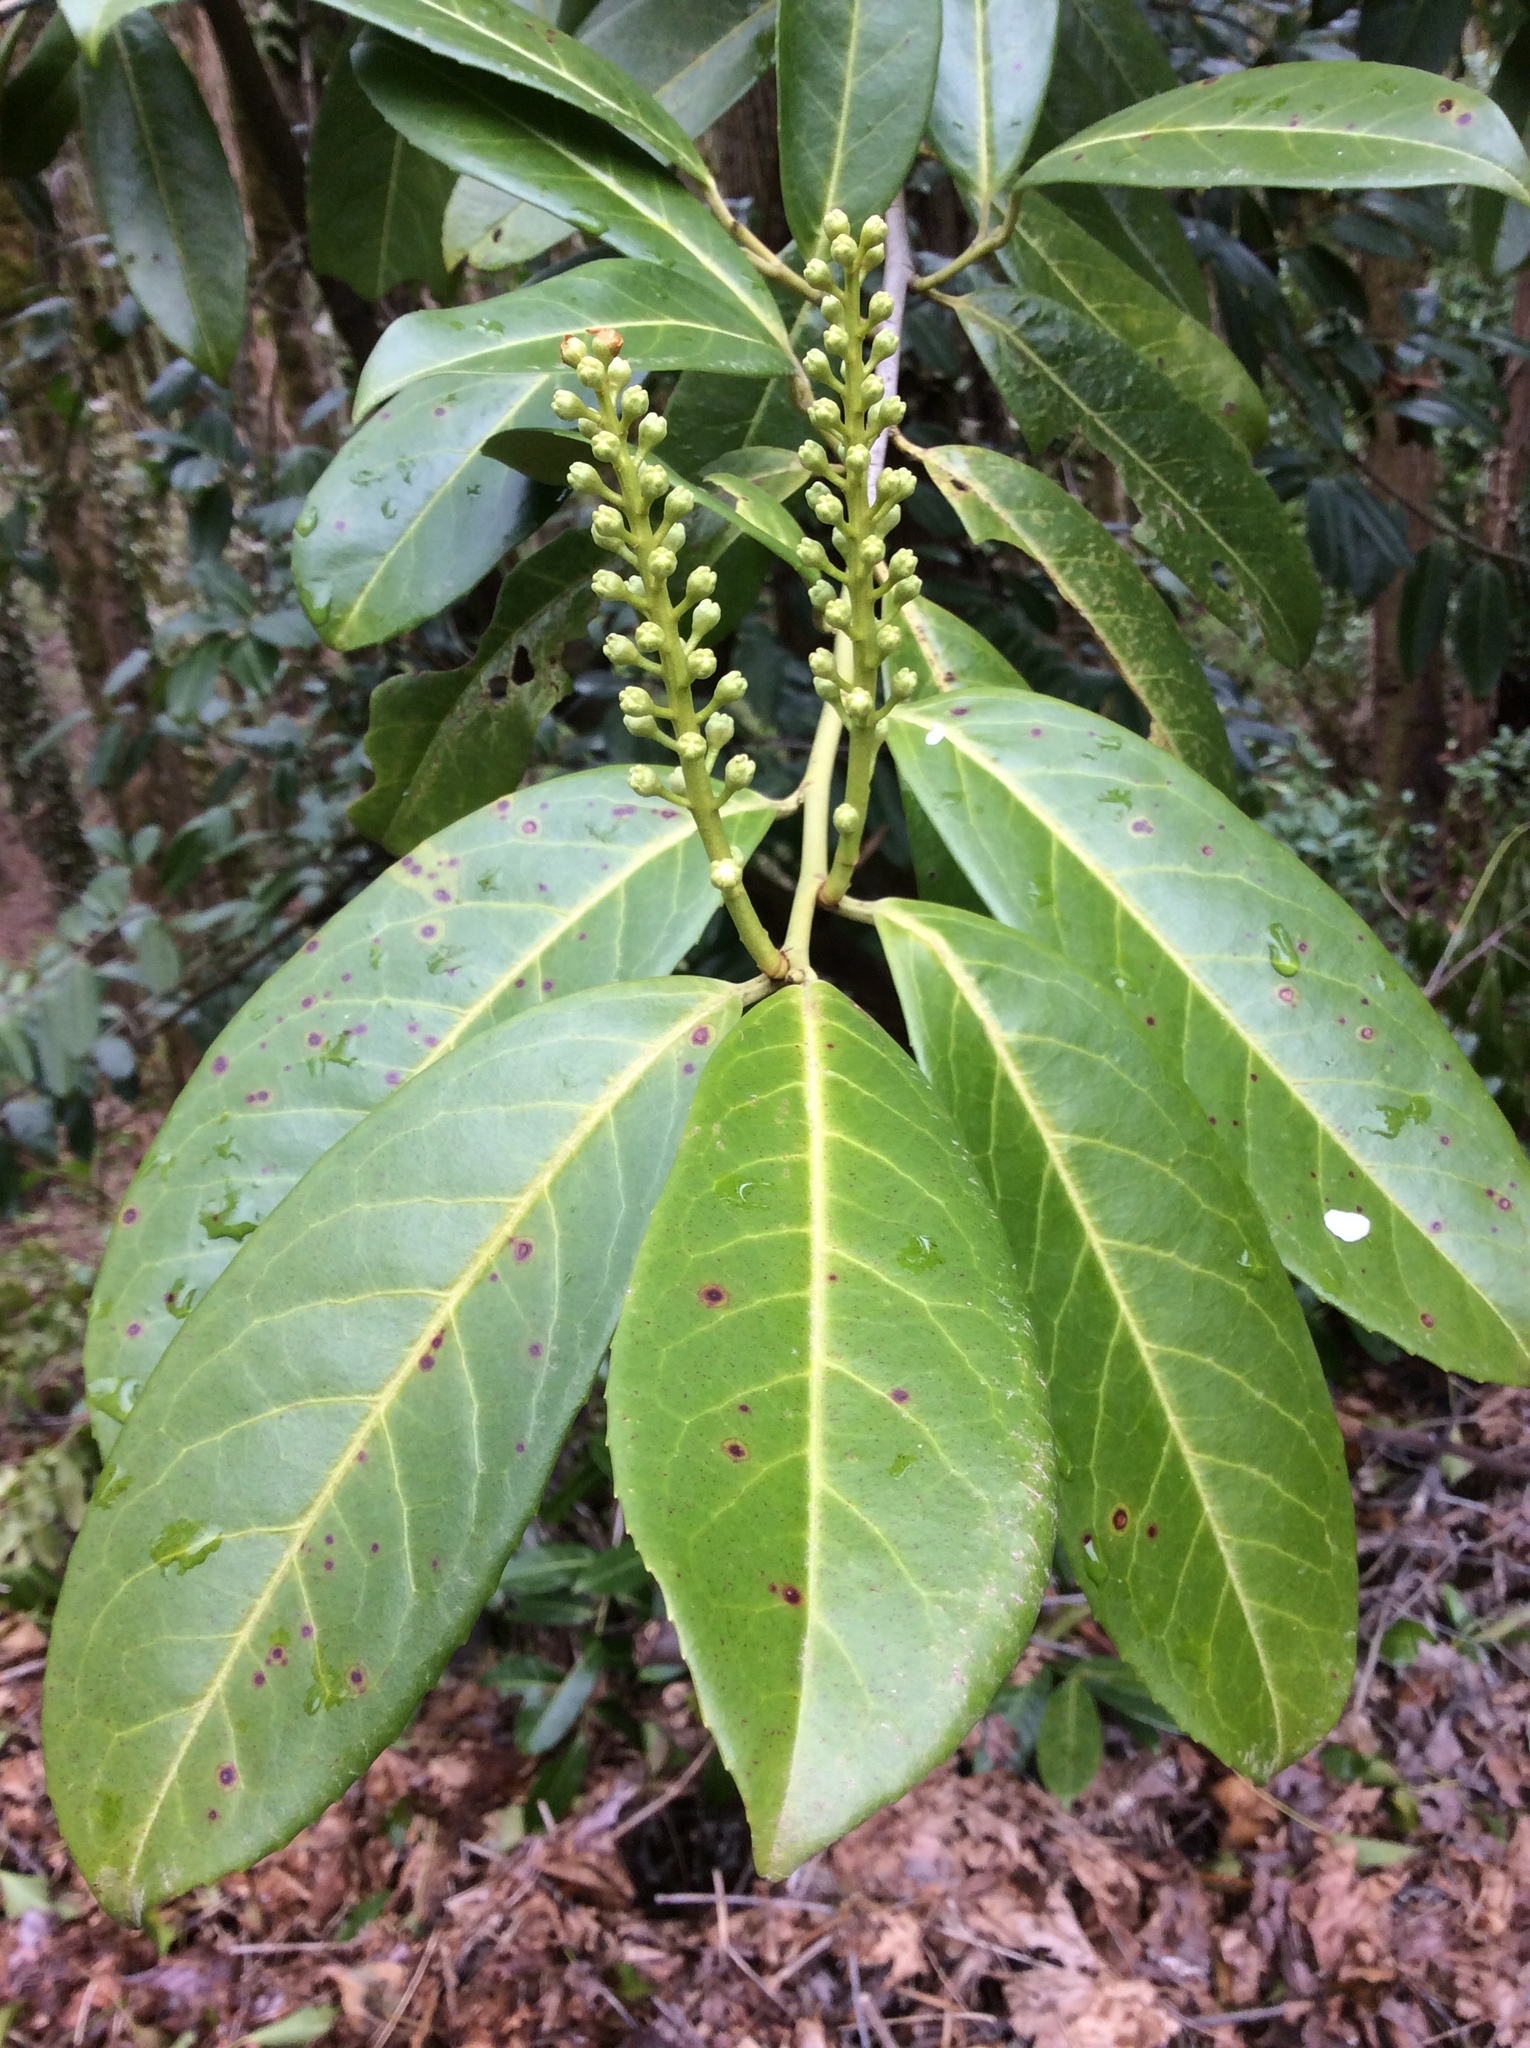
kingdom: Plantae
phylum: Tracheophyta
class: Magnoliopsida
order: Rosales
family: Rosaceae
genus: Prunus
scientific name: Prunus laurocerasus
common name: Cherry laurel
